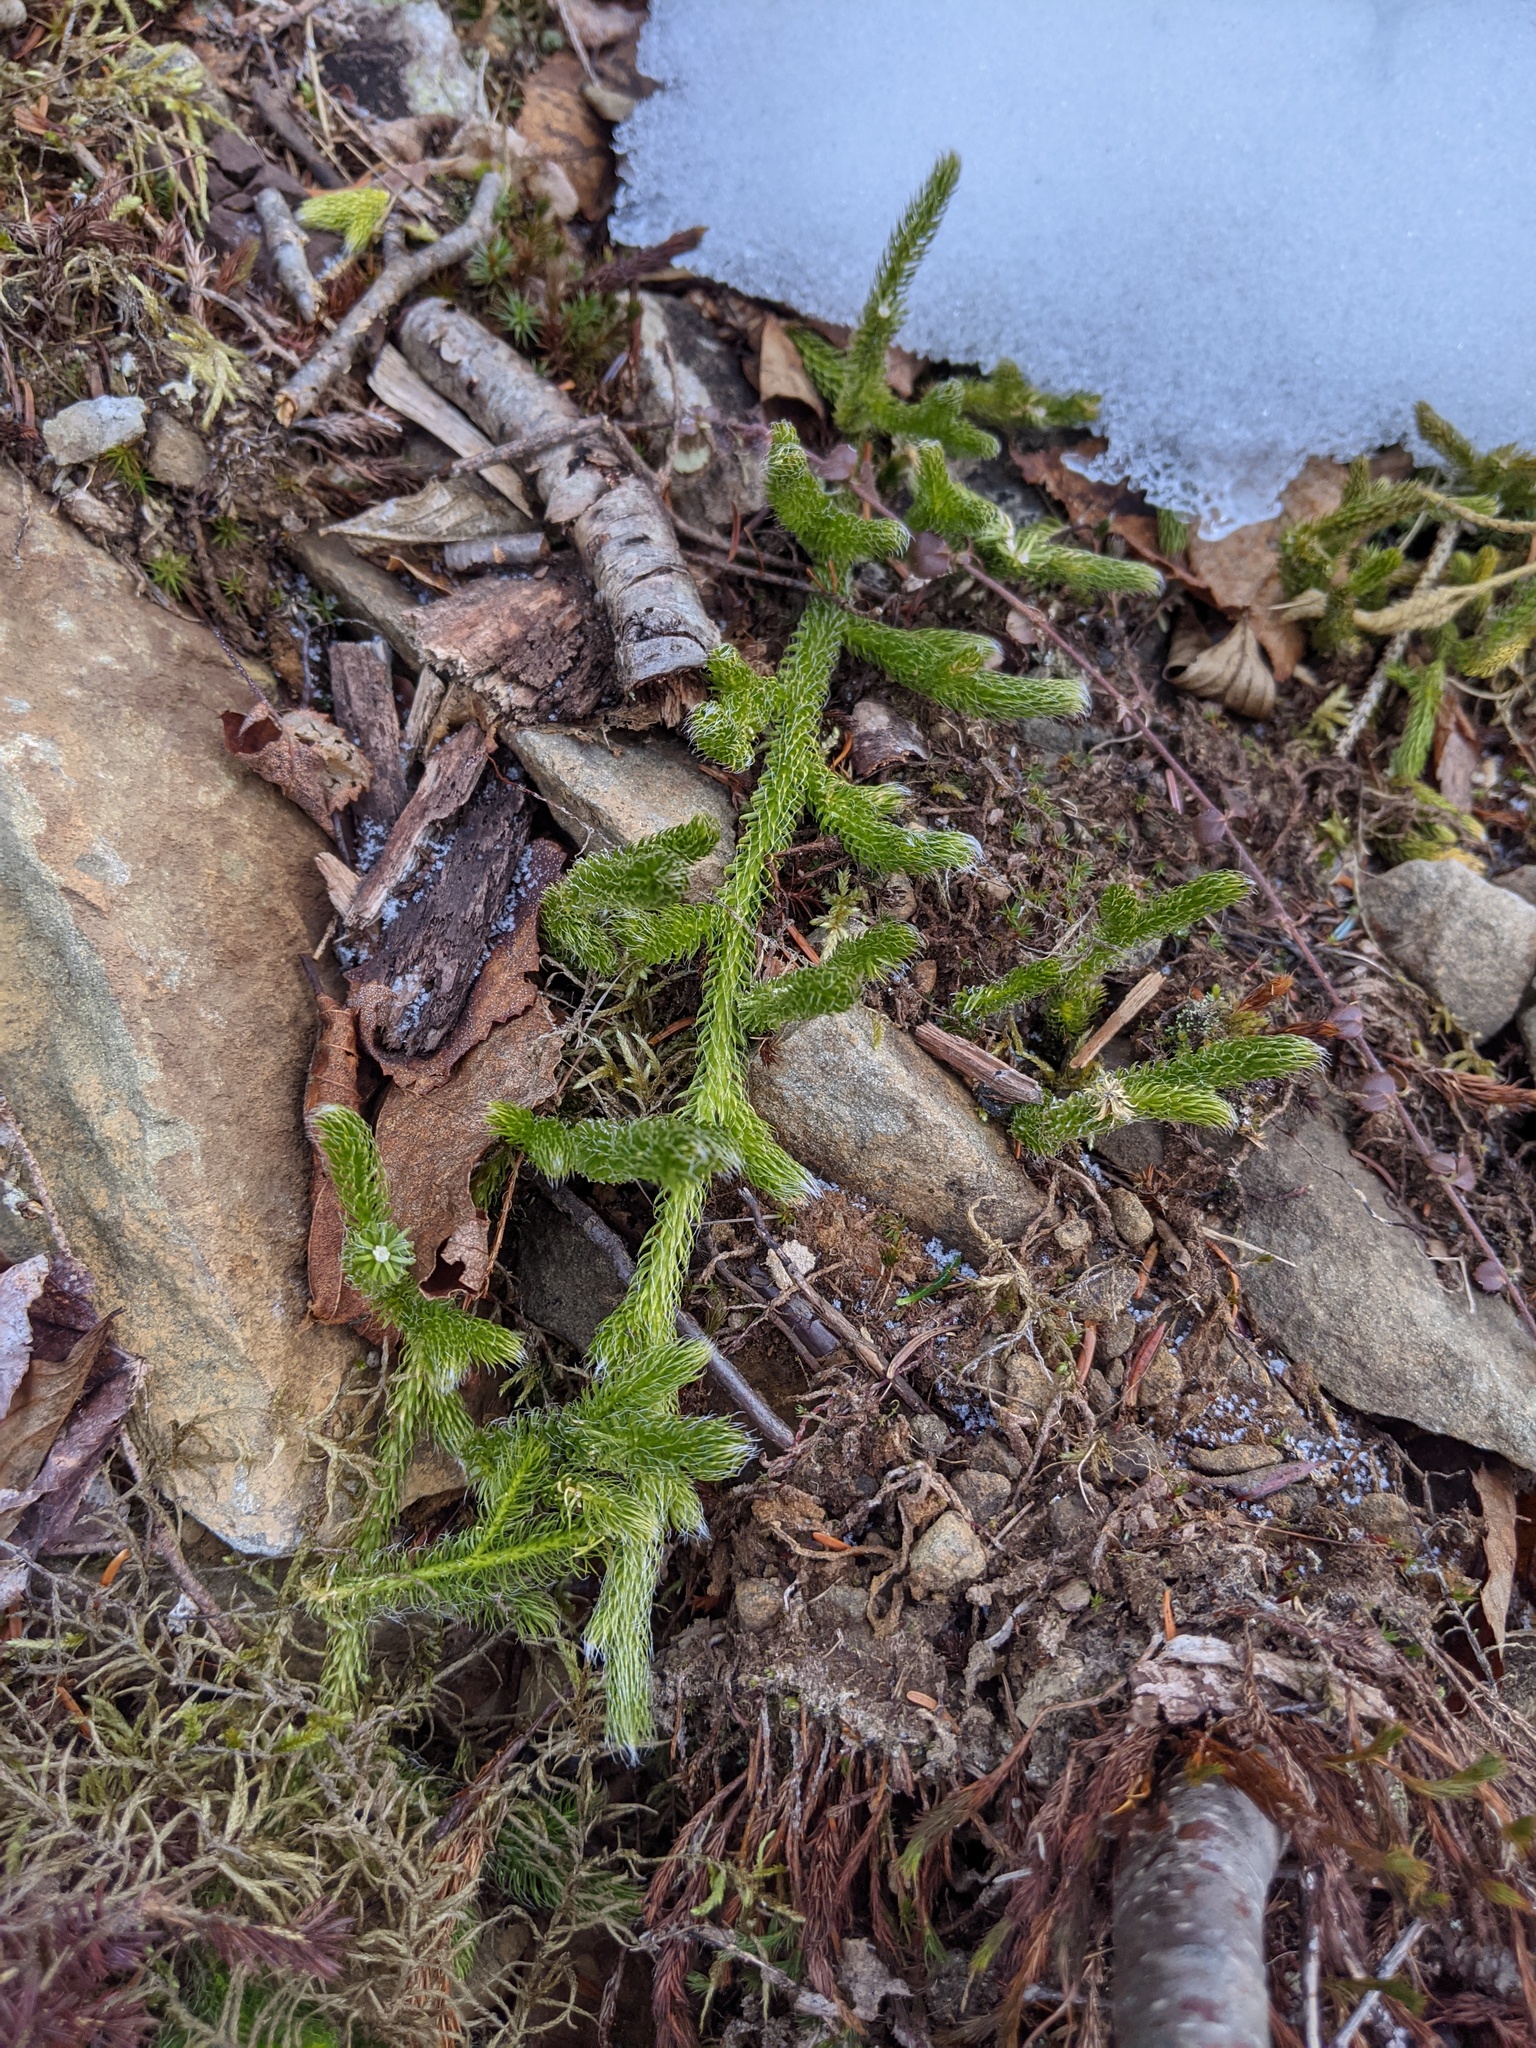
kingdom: Plantae
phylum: Tracheophyta
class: Lycopodiopsida
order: Lycopodiales
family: Lycopodiaceae
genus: Lycopodium
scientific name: Lycopodium clavatum
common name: Stag's-horn clubmoss
